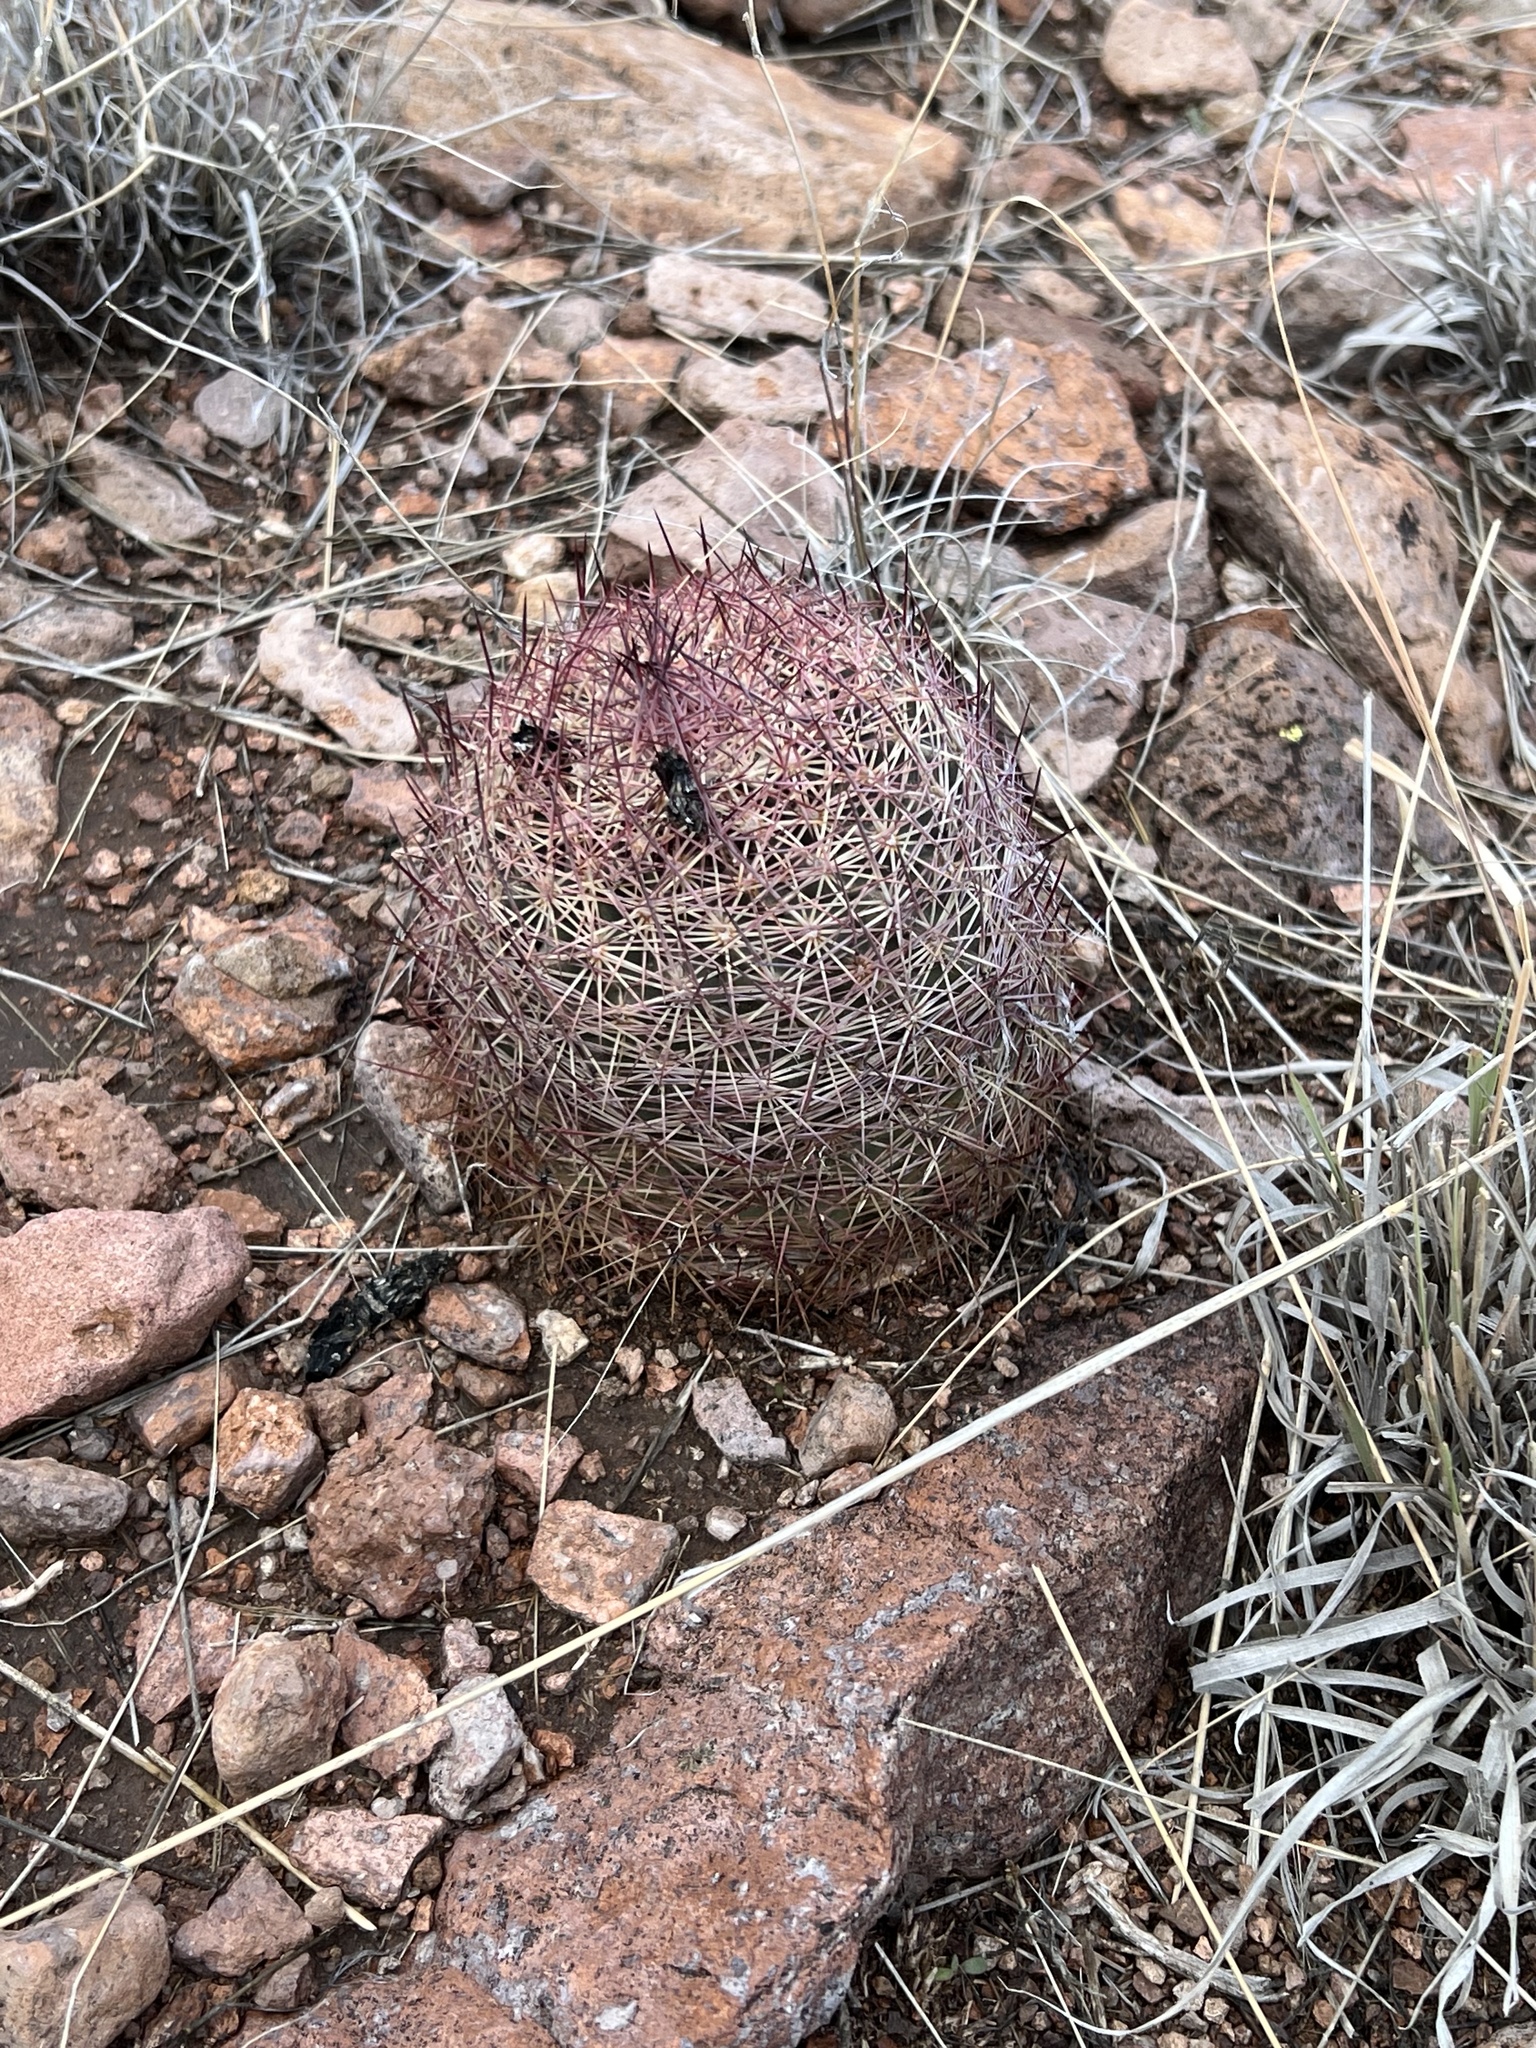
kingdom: Plantae
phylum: Tracheophyta
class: Magnoliopsida
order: Caryophyllales
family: Cactaceae
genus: Sclerocactus
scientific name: Sclerocactus johnsonii
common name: Eight-spine fishhook cactus
